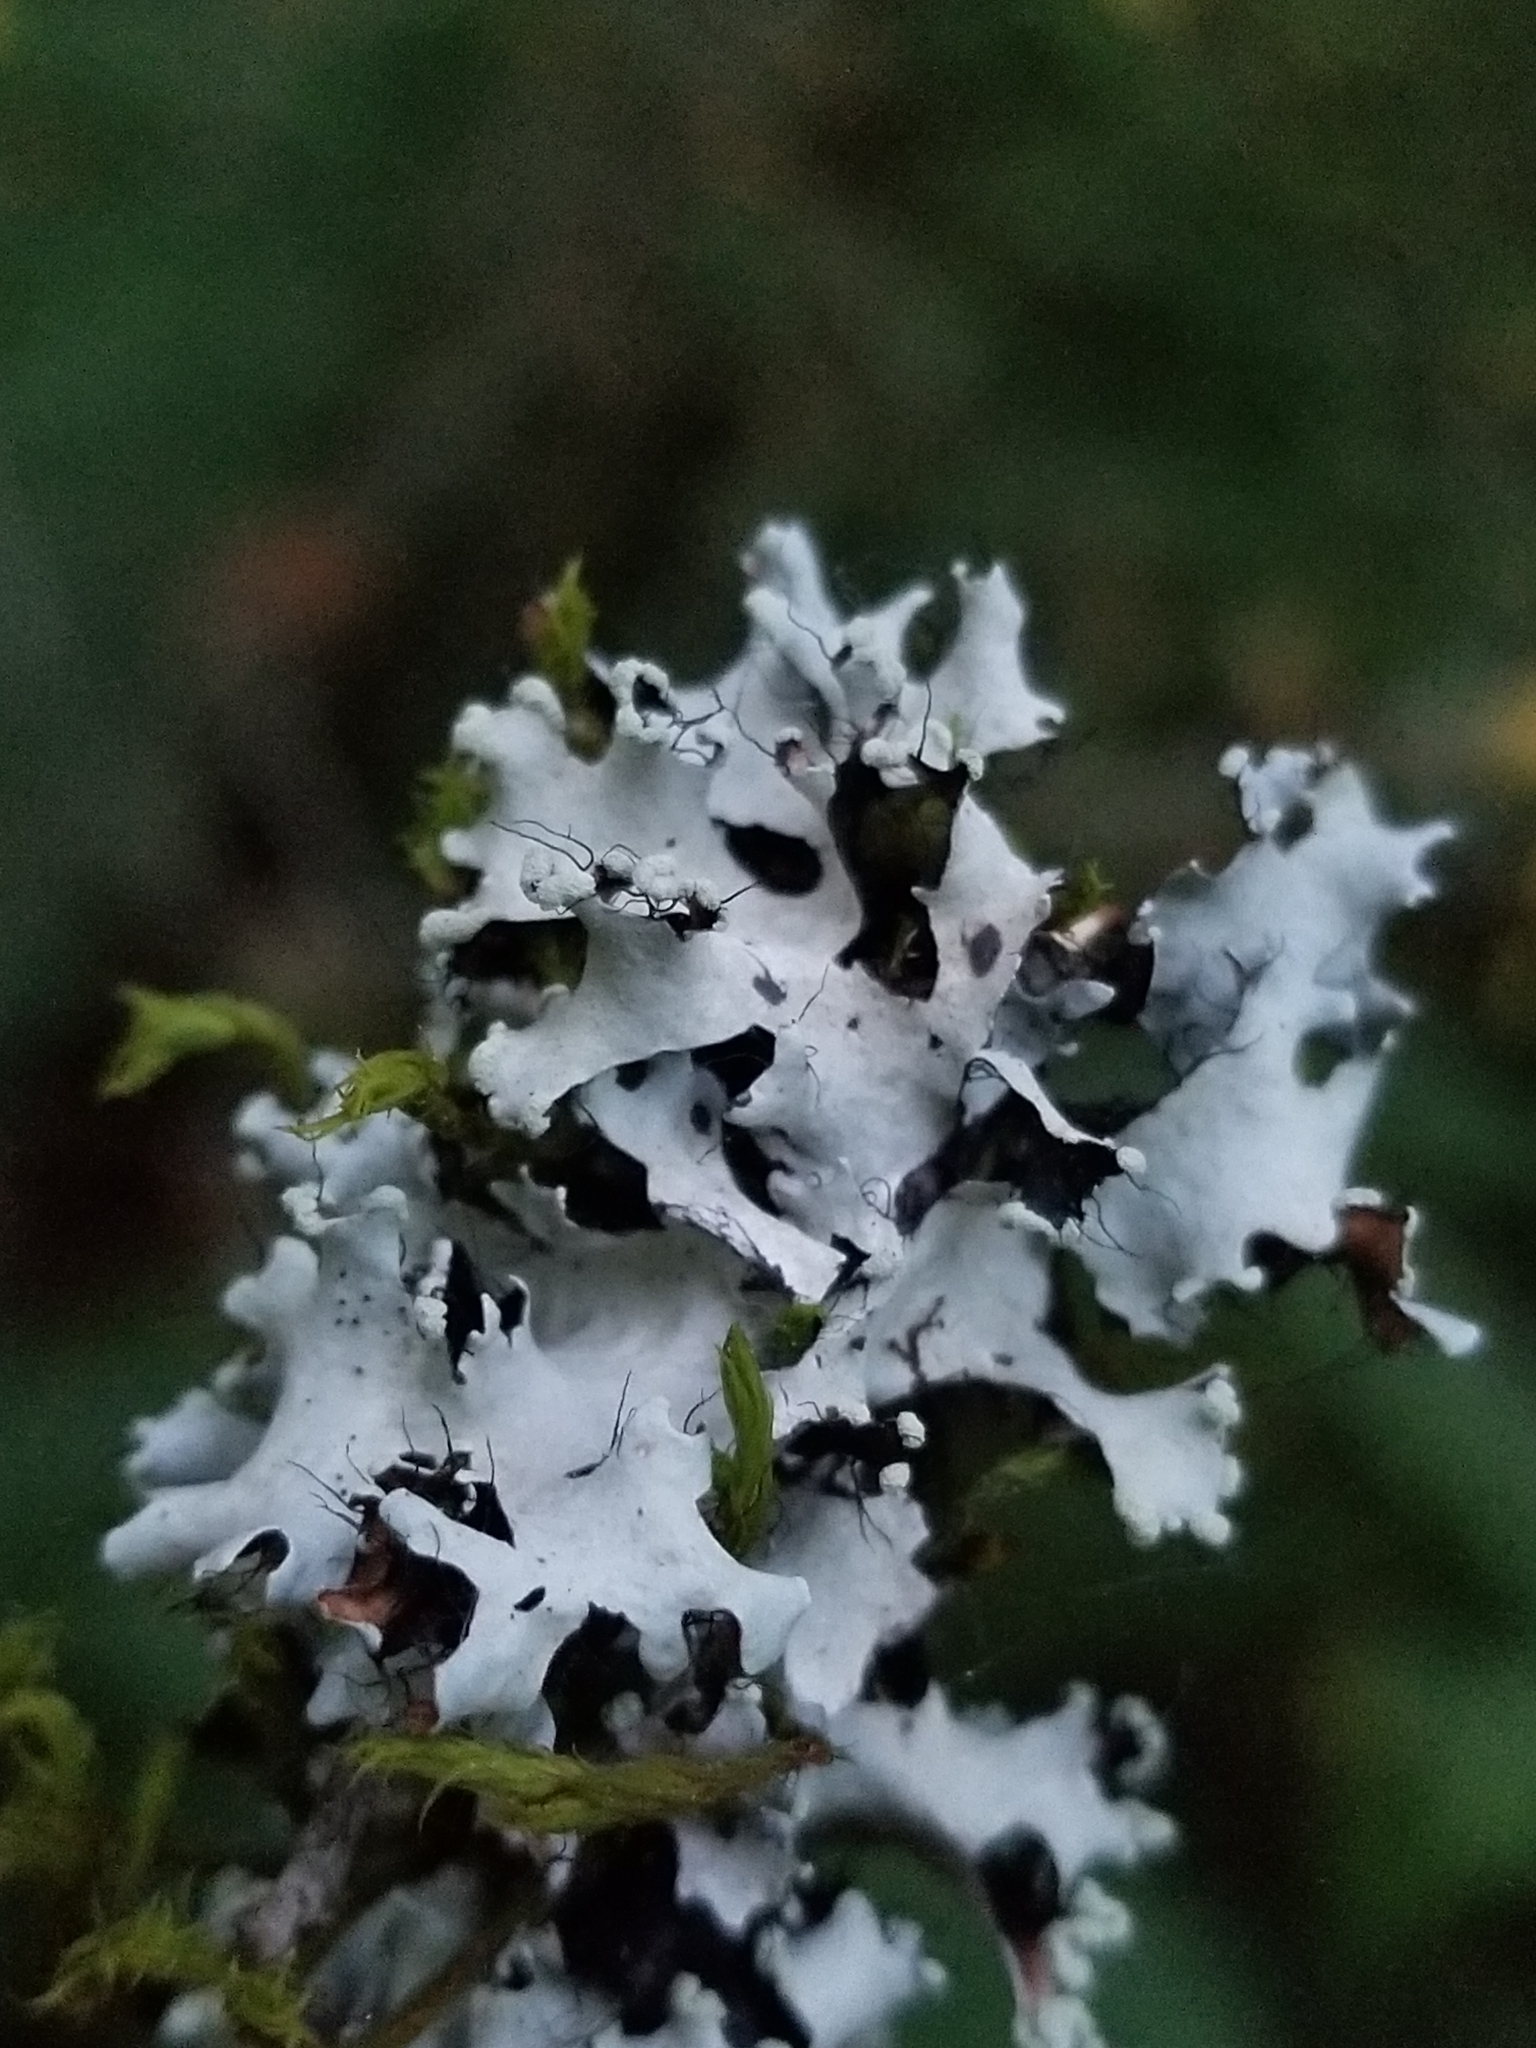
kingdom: Fungi
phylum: Ascomycota
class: Lecanoromycetes
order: Lecanorales
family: Parmeliaceae
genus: Parmotrema
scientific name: Parmotrema perlatum
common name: Black stone flower
